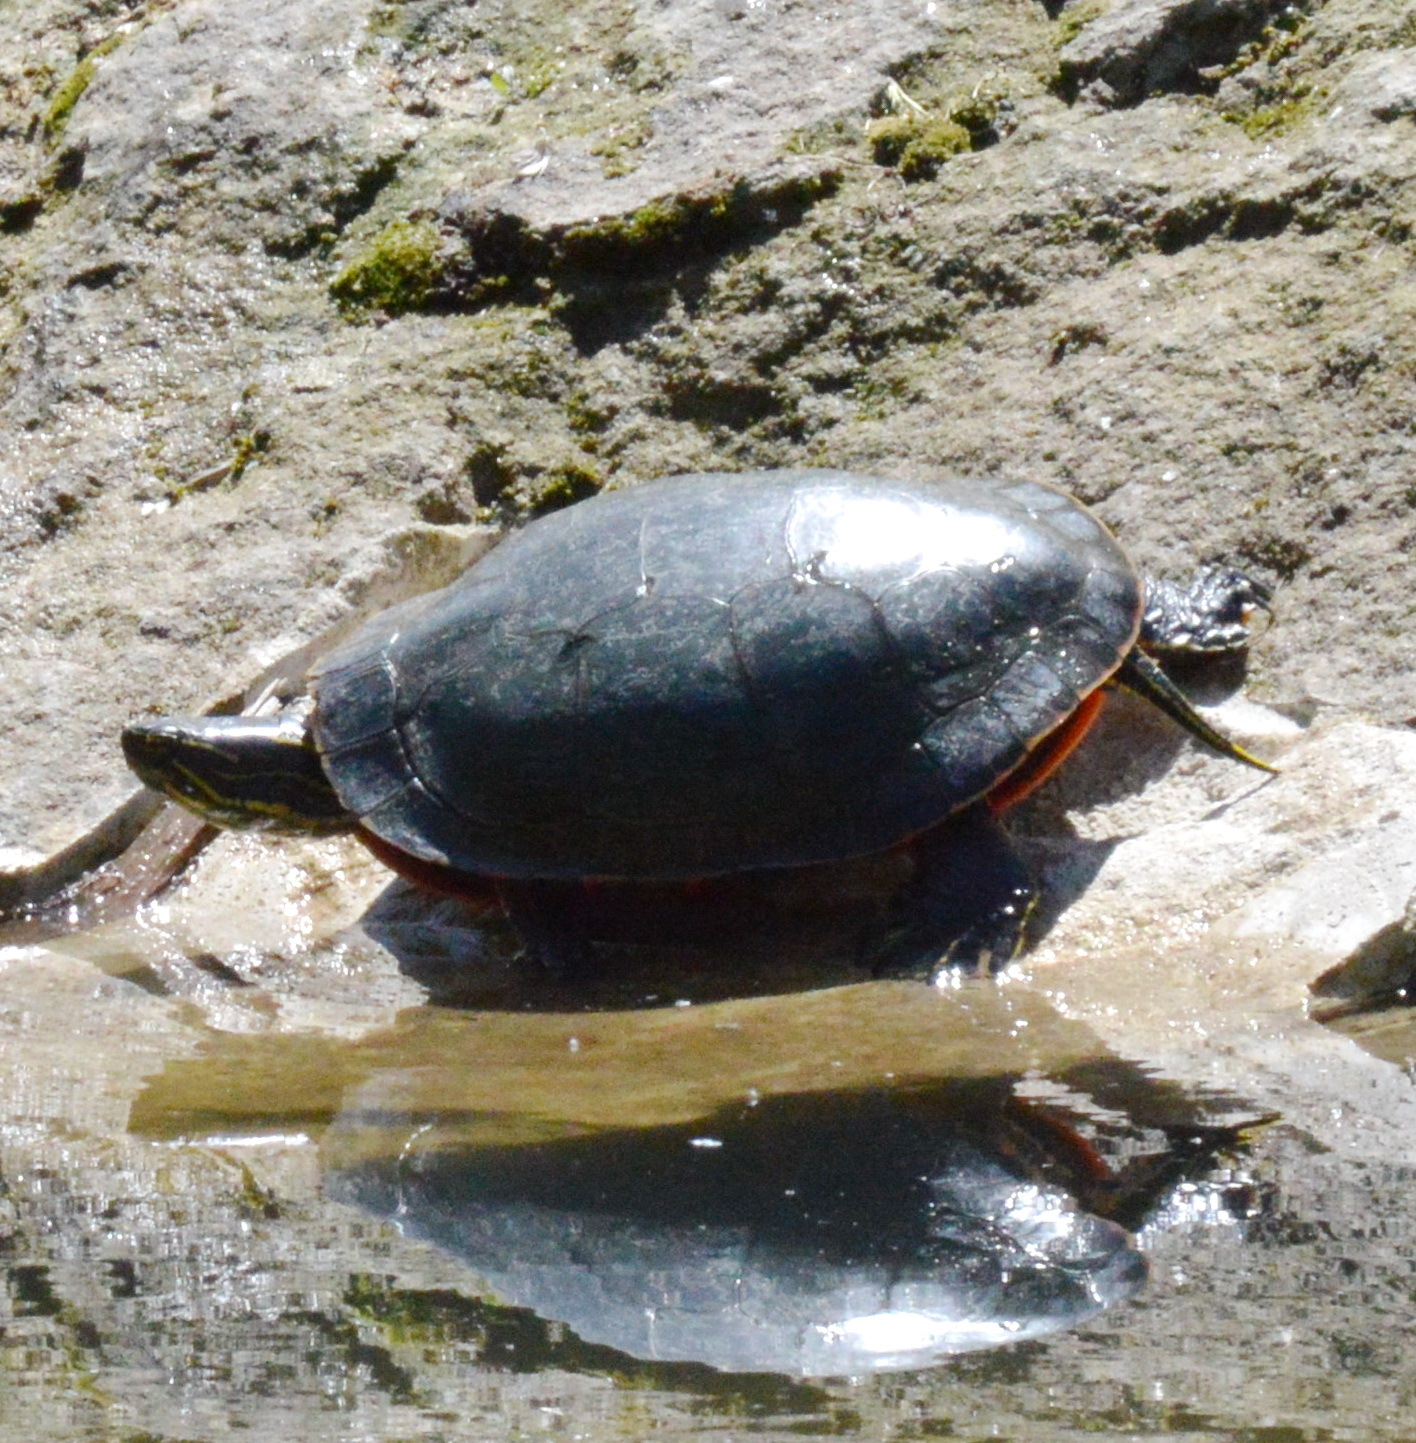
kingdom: Animalia
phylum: Chordata
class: Testudines
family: Emydidae
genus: Chrysemys
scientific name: Chrysemys picta
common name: Painted turtle
